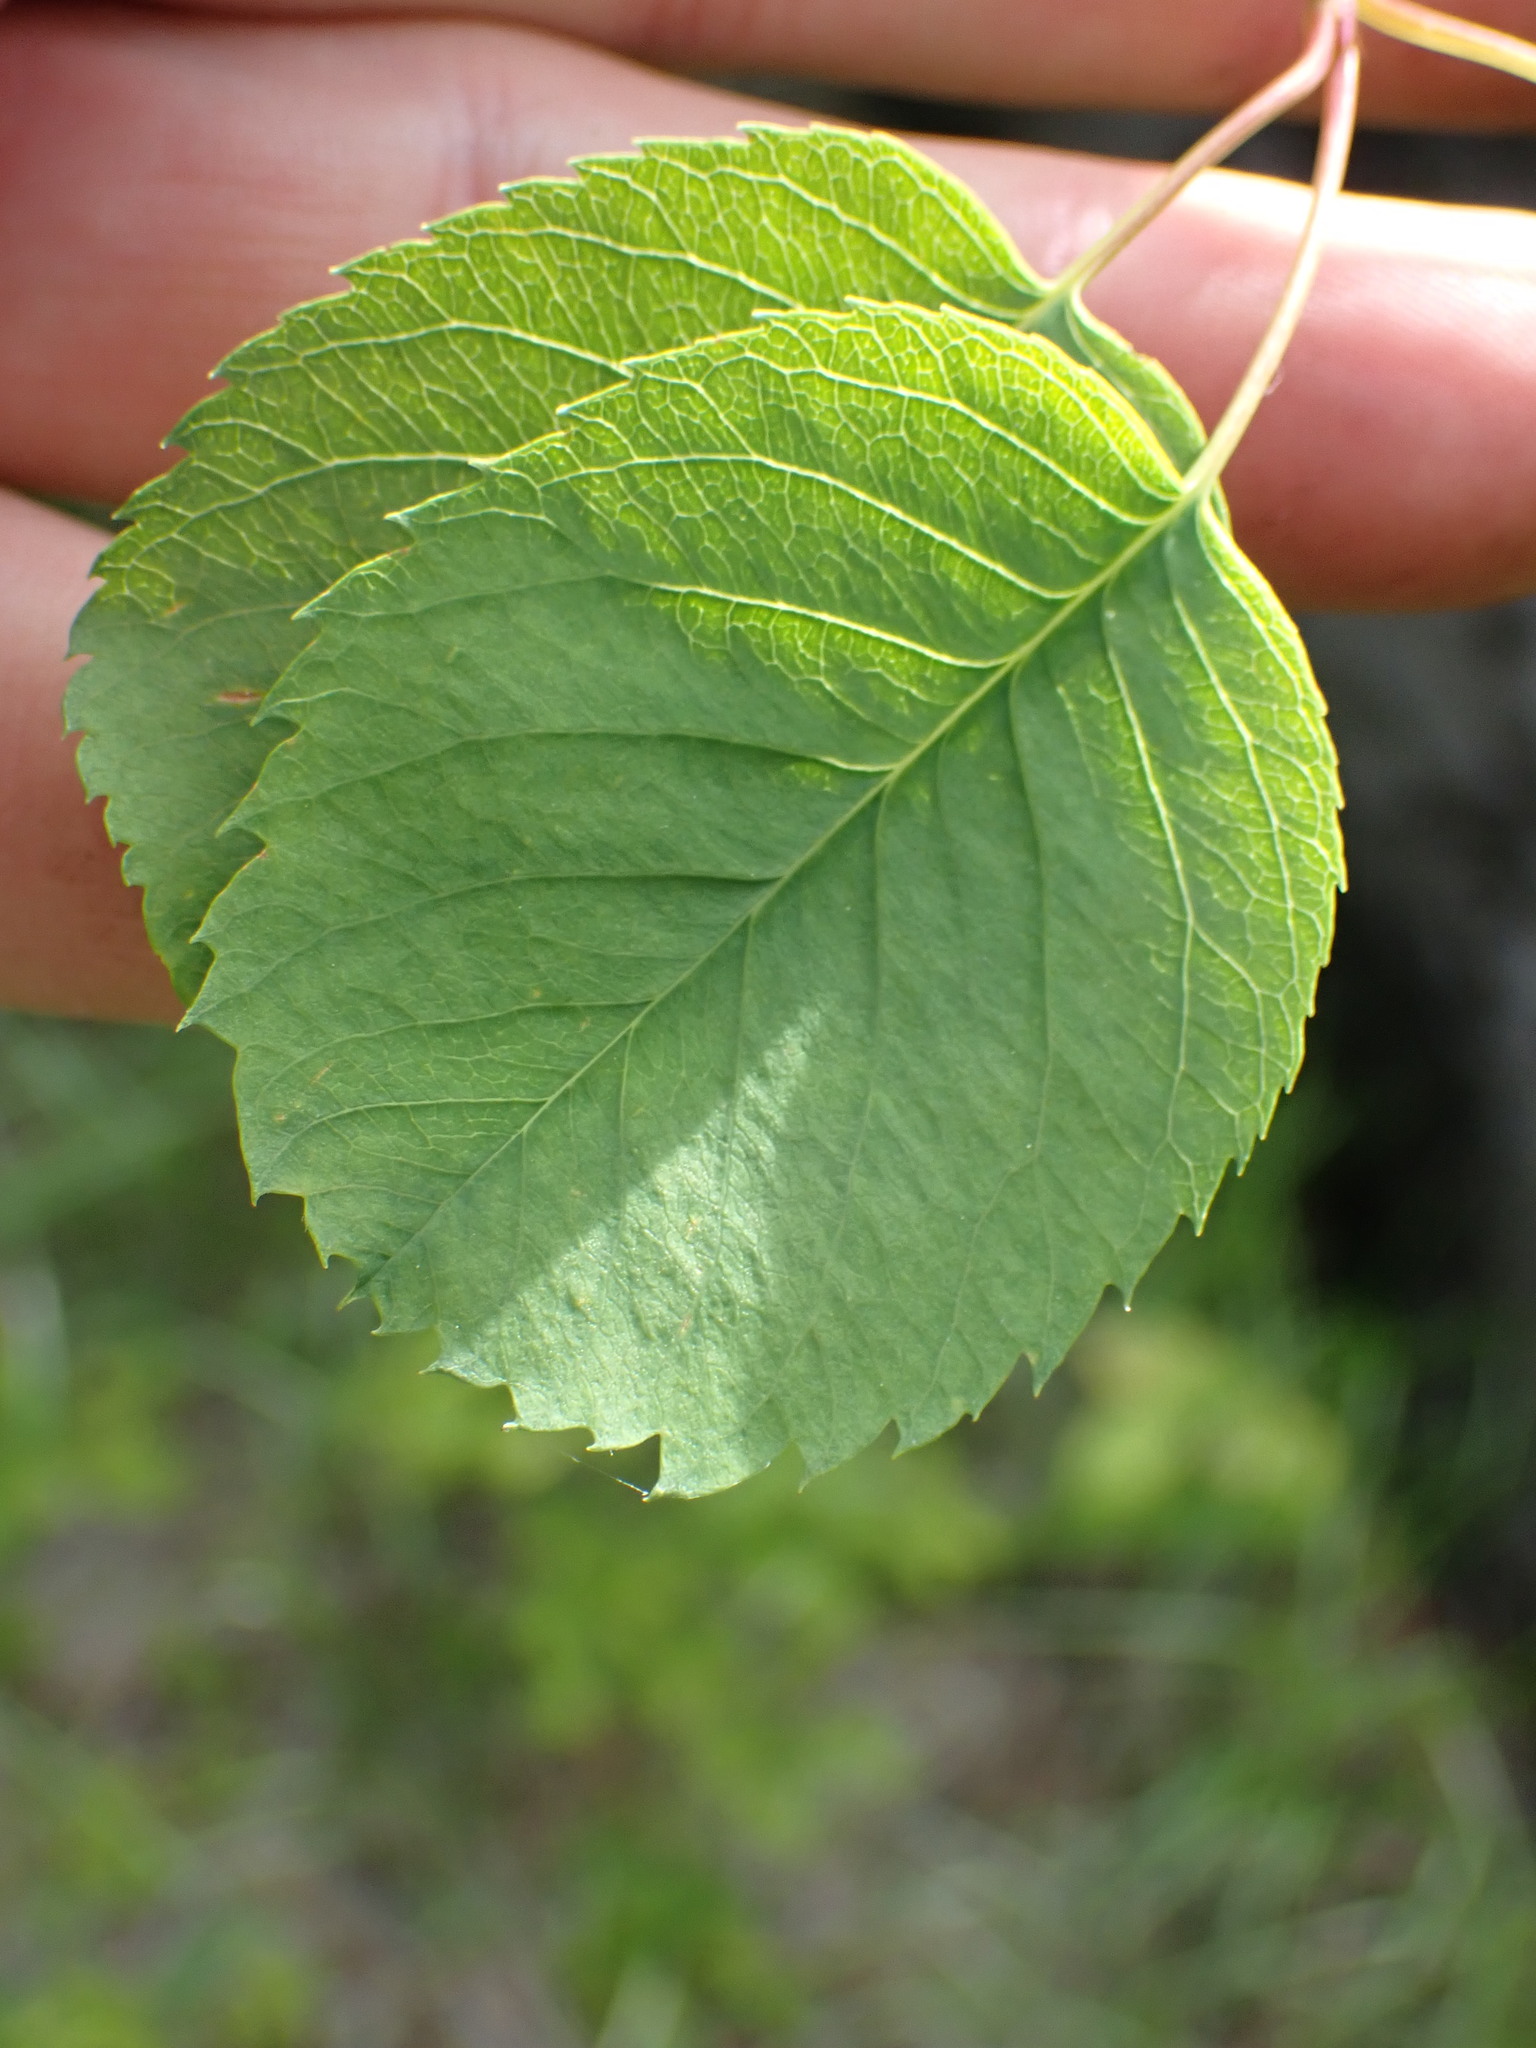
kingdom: Plantae
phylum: Tracheophyta
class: Magnoliopsida
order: Rosales
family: Rosaceae
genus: Amelanchier
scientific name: Amelanchier alnifolia
